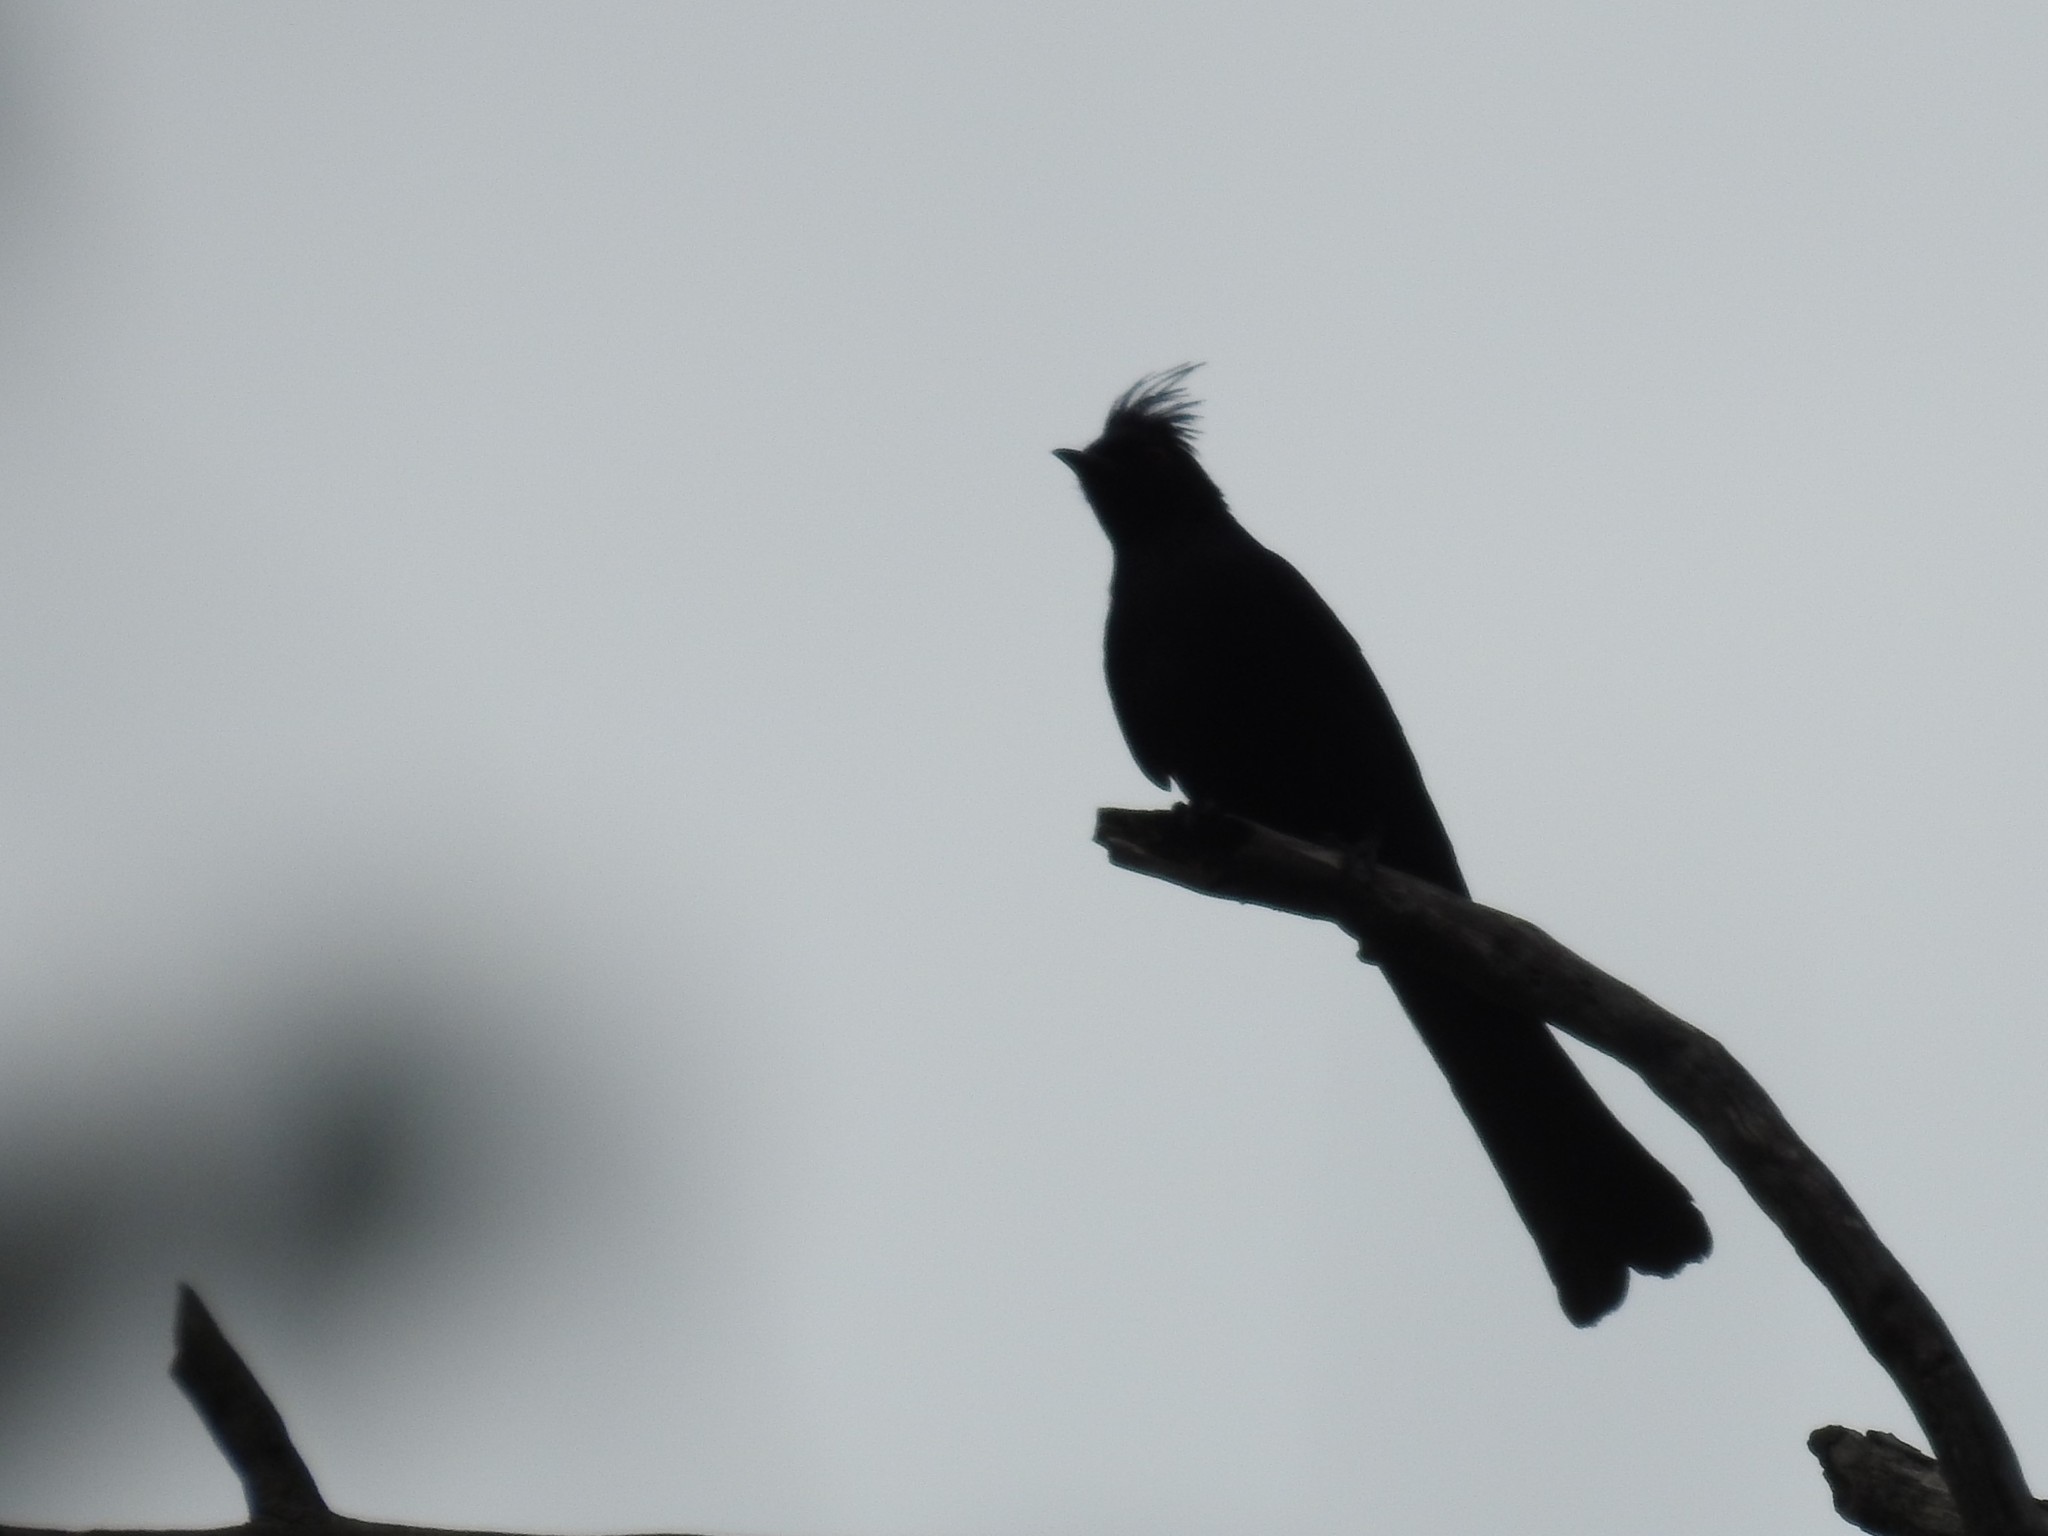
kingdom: Animalia
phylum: Chordata
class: Aves
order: Passeriformes
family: Ptilogonatidae
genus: Phainopepla
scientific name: Phainopepla nitens
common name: Phainopepla
